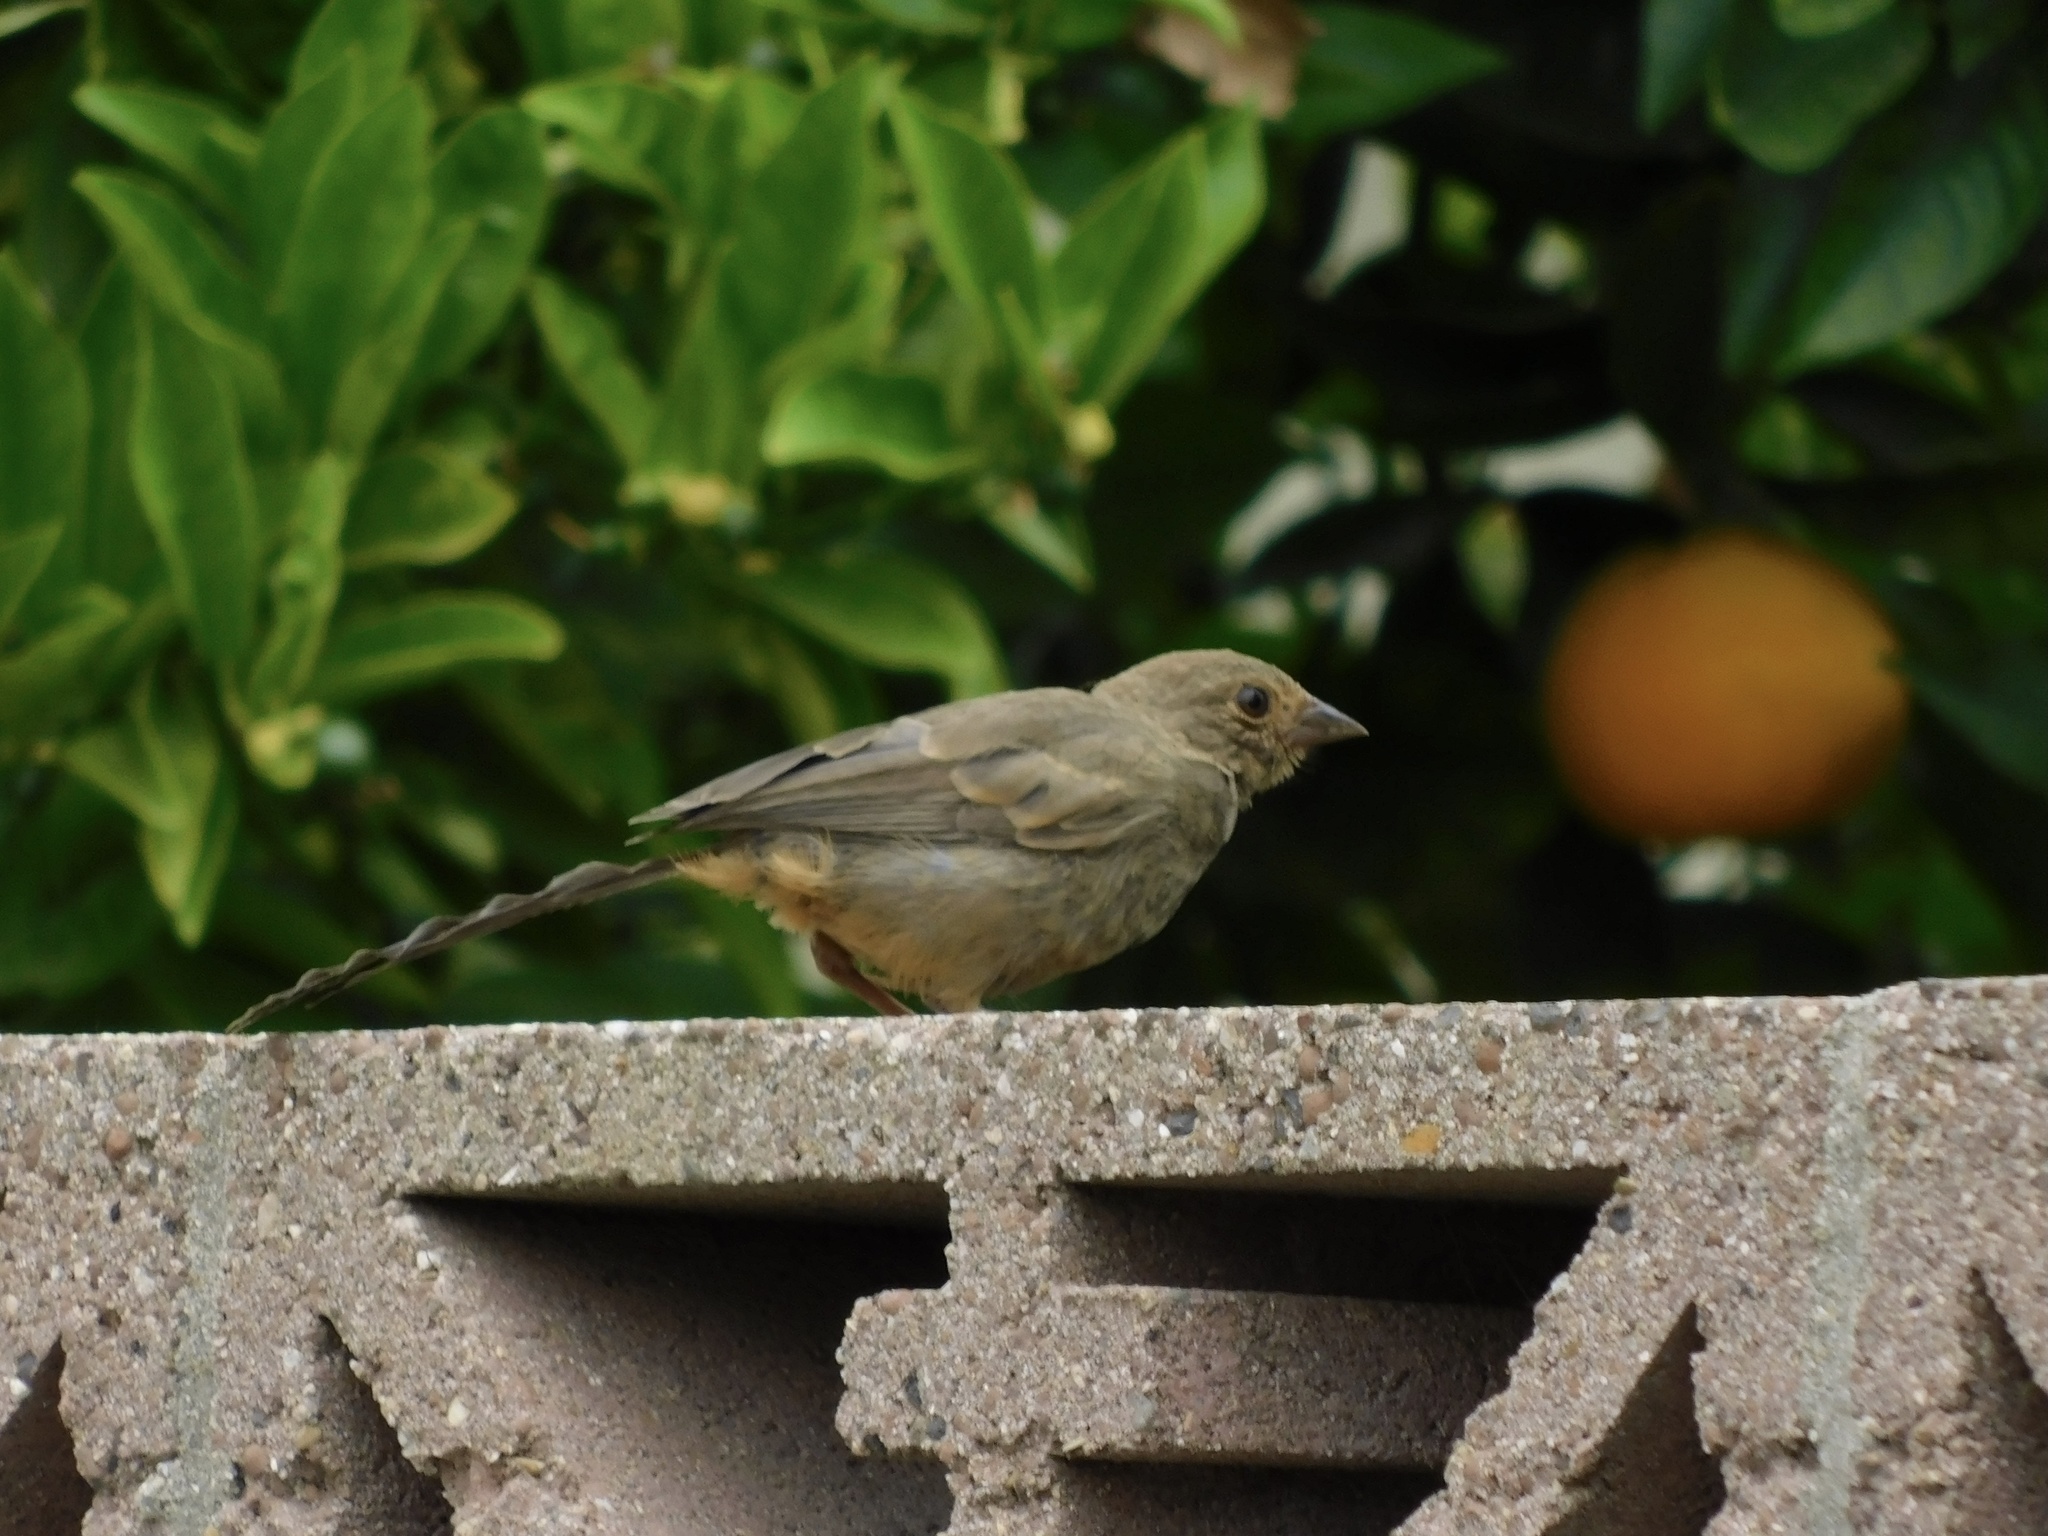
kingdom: Animalia
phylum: Chordata
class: Aves
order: Passeriformes
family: Passerellidae
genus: Melozone
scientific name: Melozone crissalis
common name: California towhee
